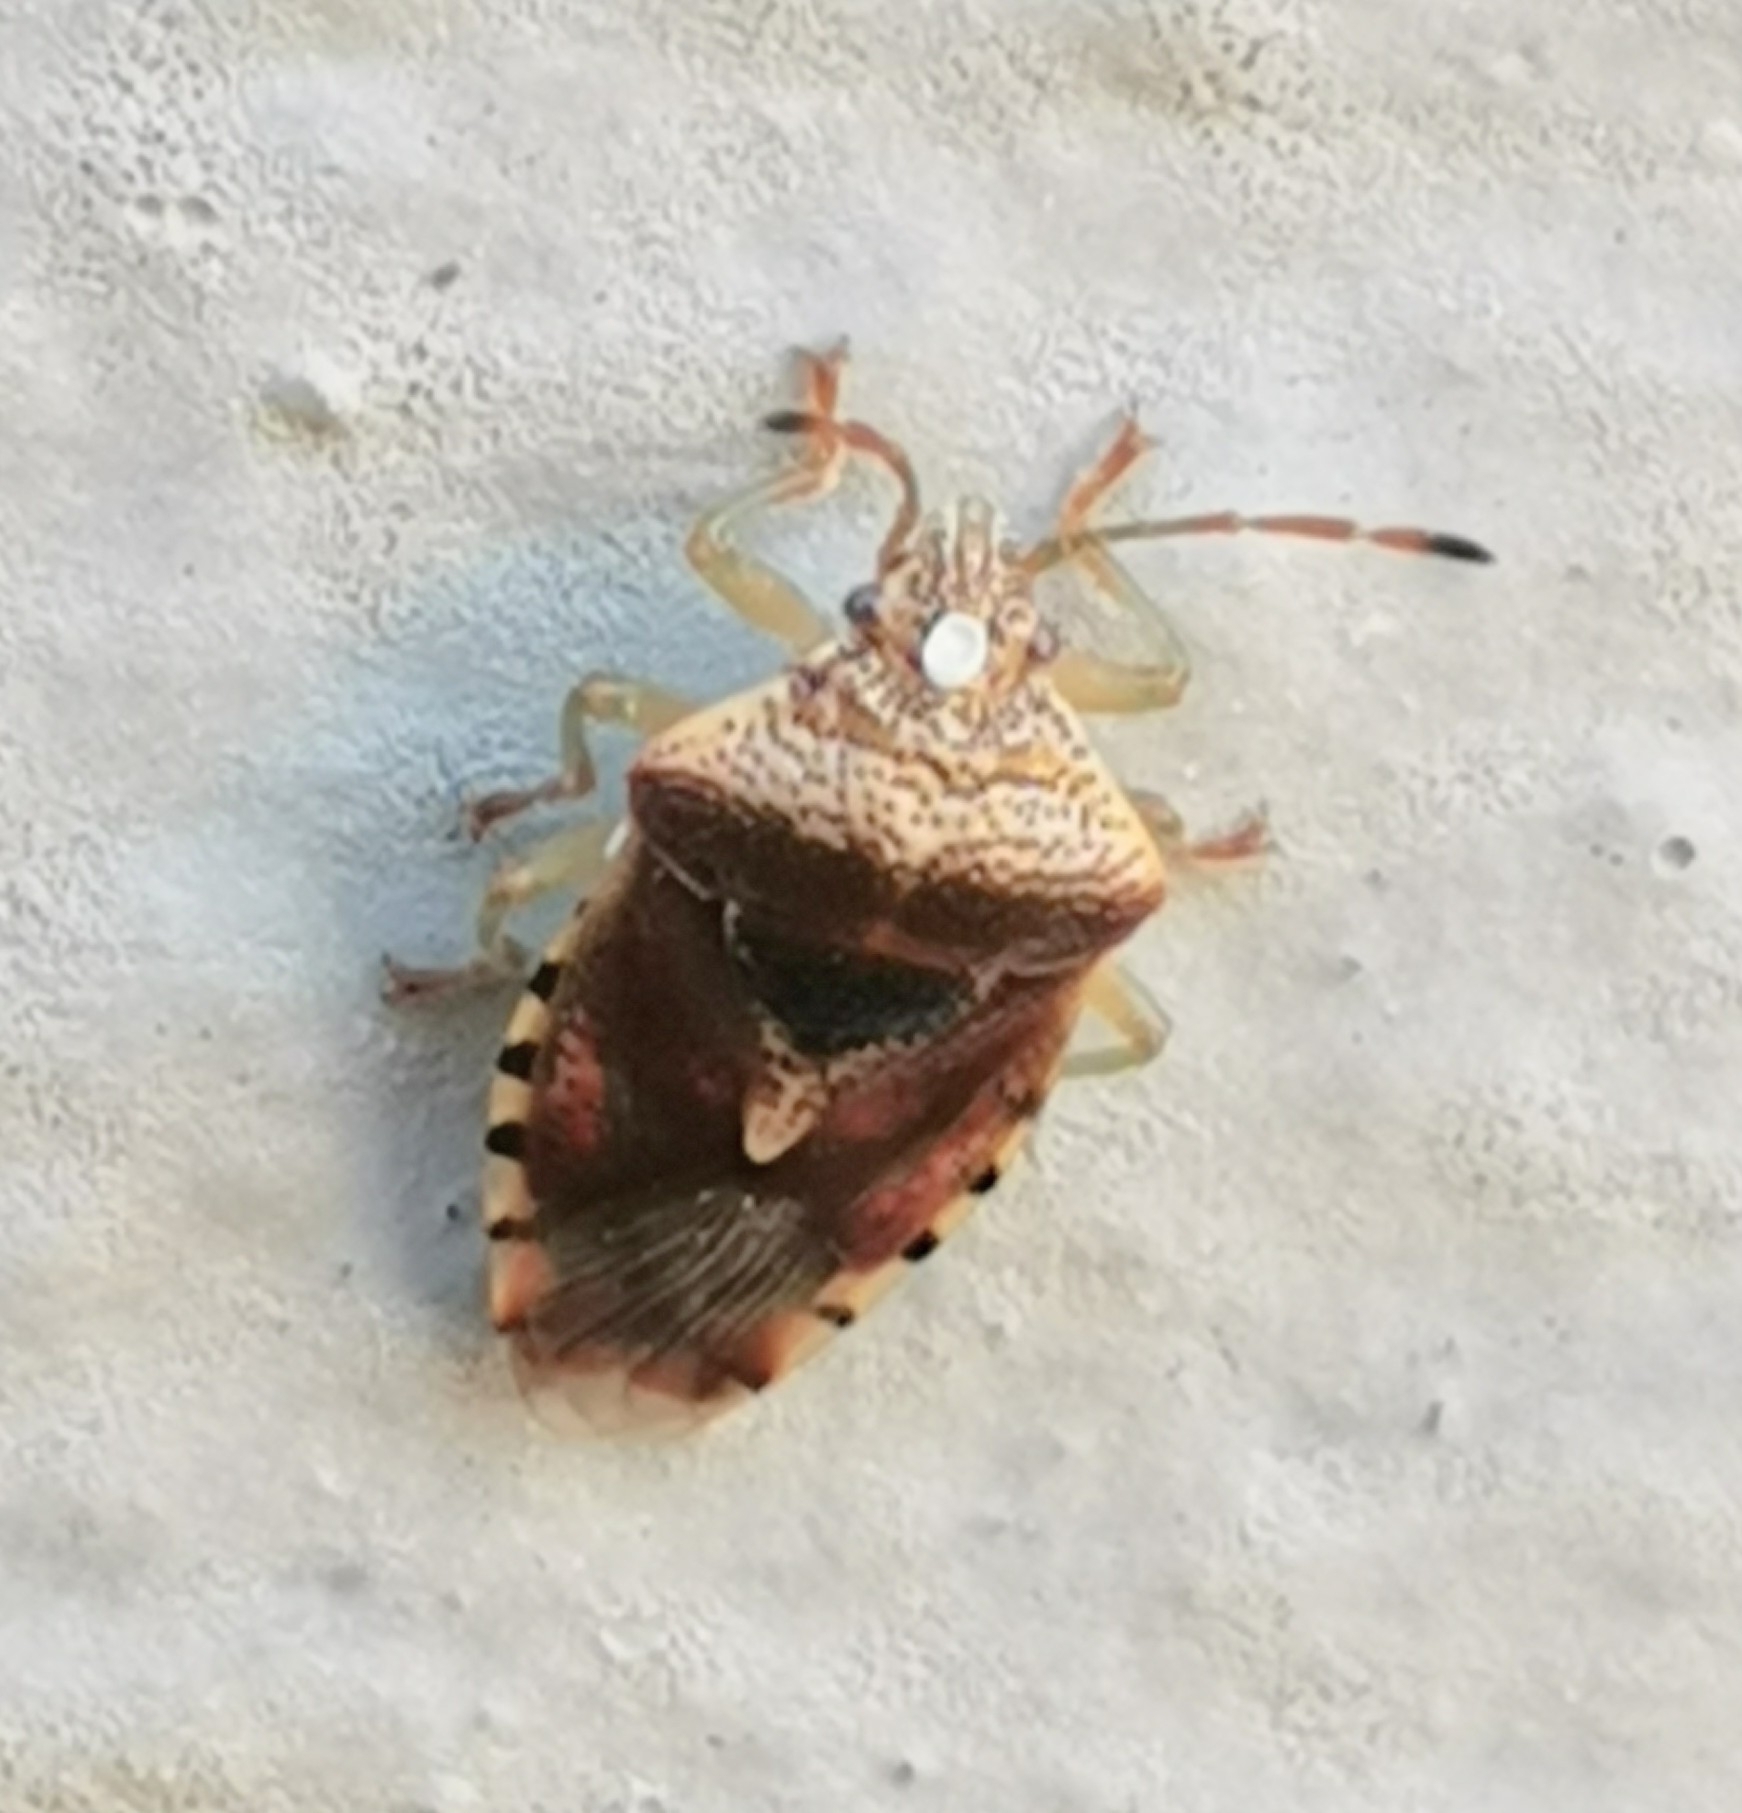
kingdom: Animalia
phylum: Arthropoda
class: Insecta
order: Hemiptera
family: Acanthosomatidae
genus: Elasmucha
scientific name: Elasmucha grisea
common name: Parent bug
